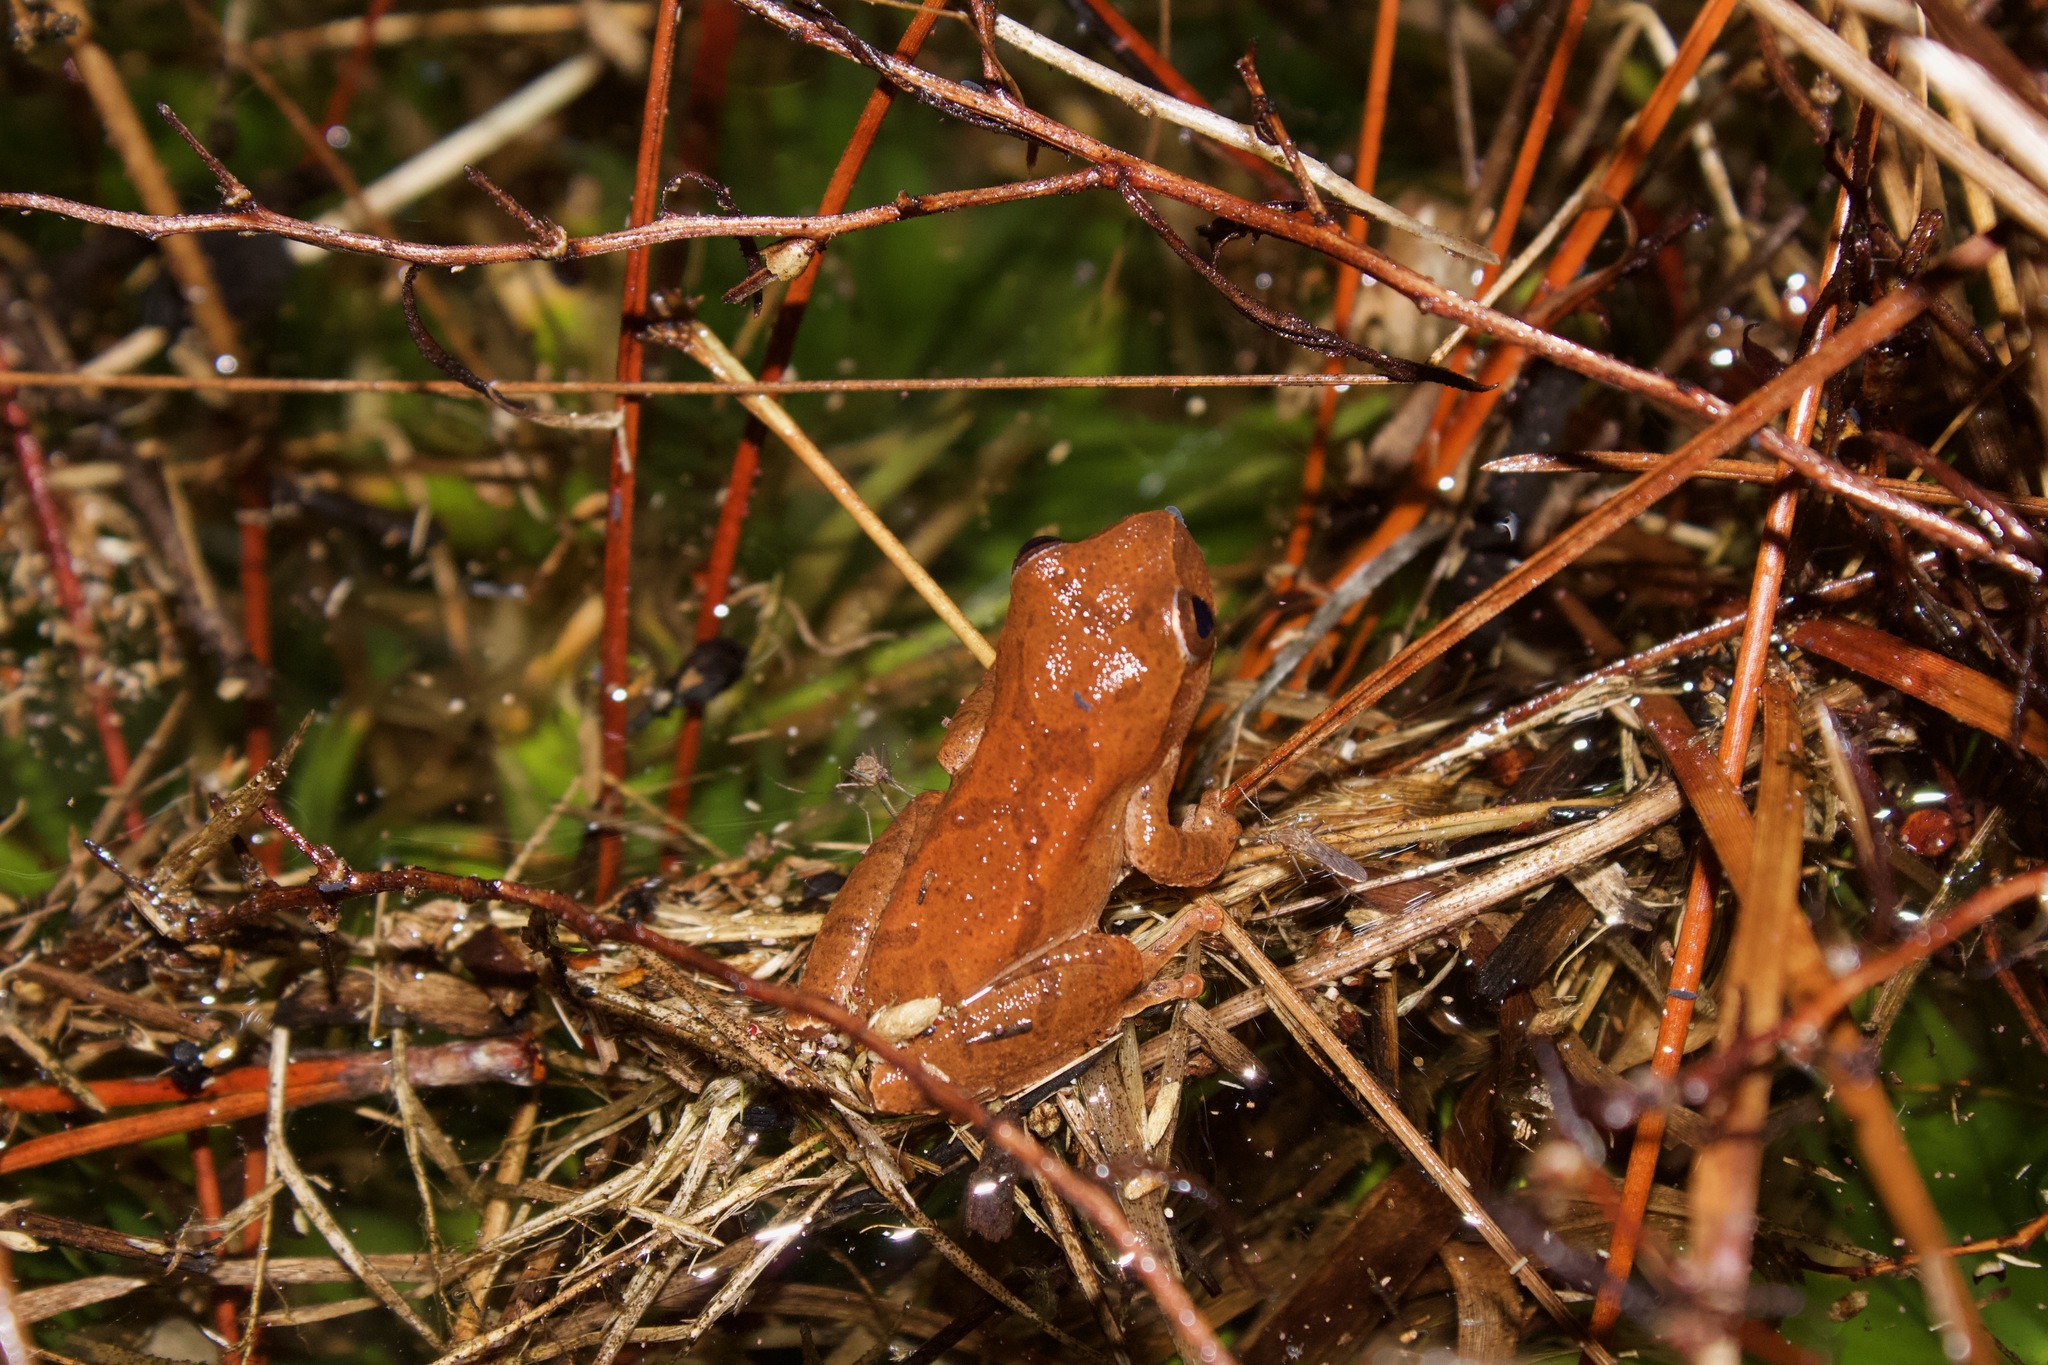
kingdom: Animalia
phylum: Chordata
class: Amphibia
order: Anura
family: Hylidae
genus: Pseudacris
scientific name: Pseudacris crucifer
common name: Spring peeper
